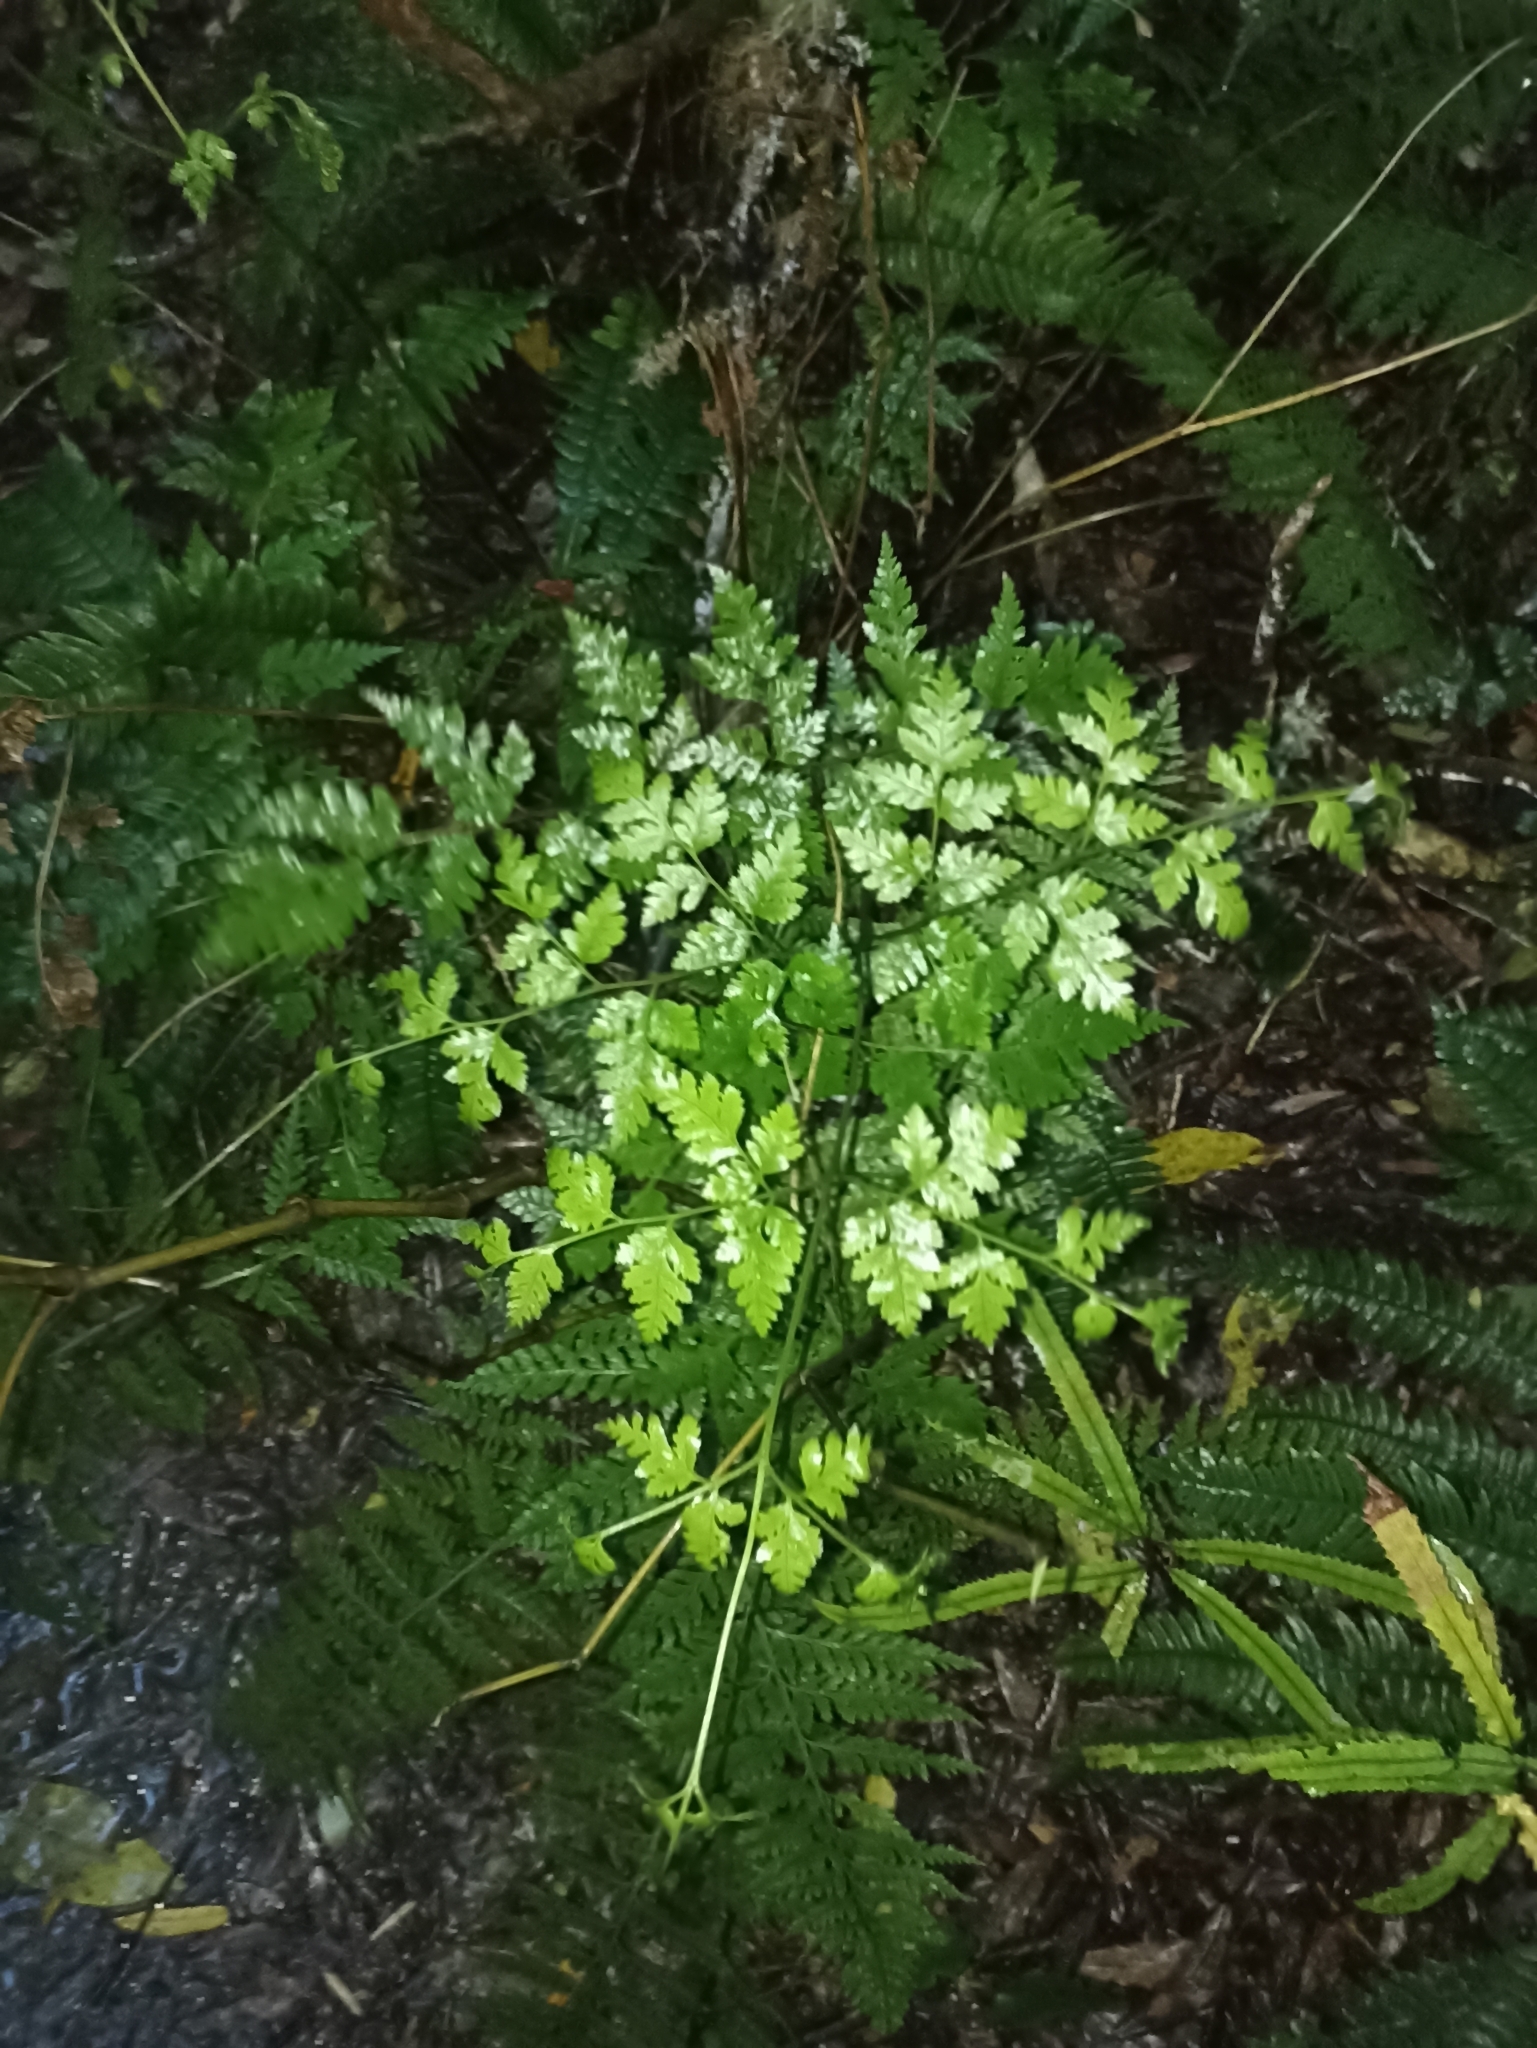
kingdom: Plantae
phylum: Tracheophyta
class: Polypodiopsida
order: Polypodiales
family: Pteridaceae
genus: Pteris
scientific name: Pteris macilenta
